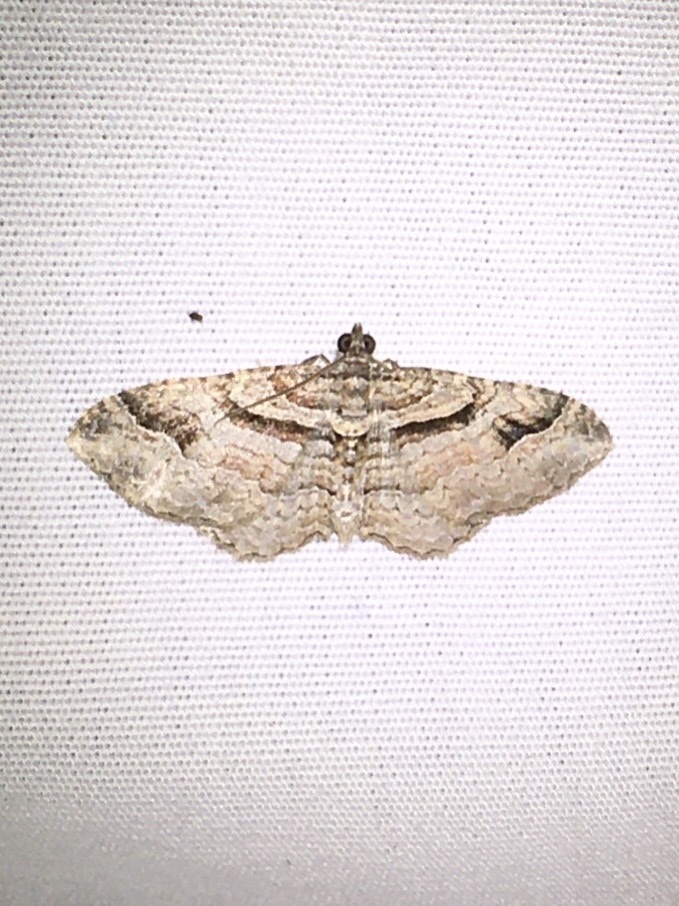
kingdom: Animalia
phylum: Arthropoda
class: Insecta
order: Lepidoptera
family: Geometridae
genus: Costaconvexa
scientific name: Costaconvexa centrostrigaria
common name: Bent-line carpet
